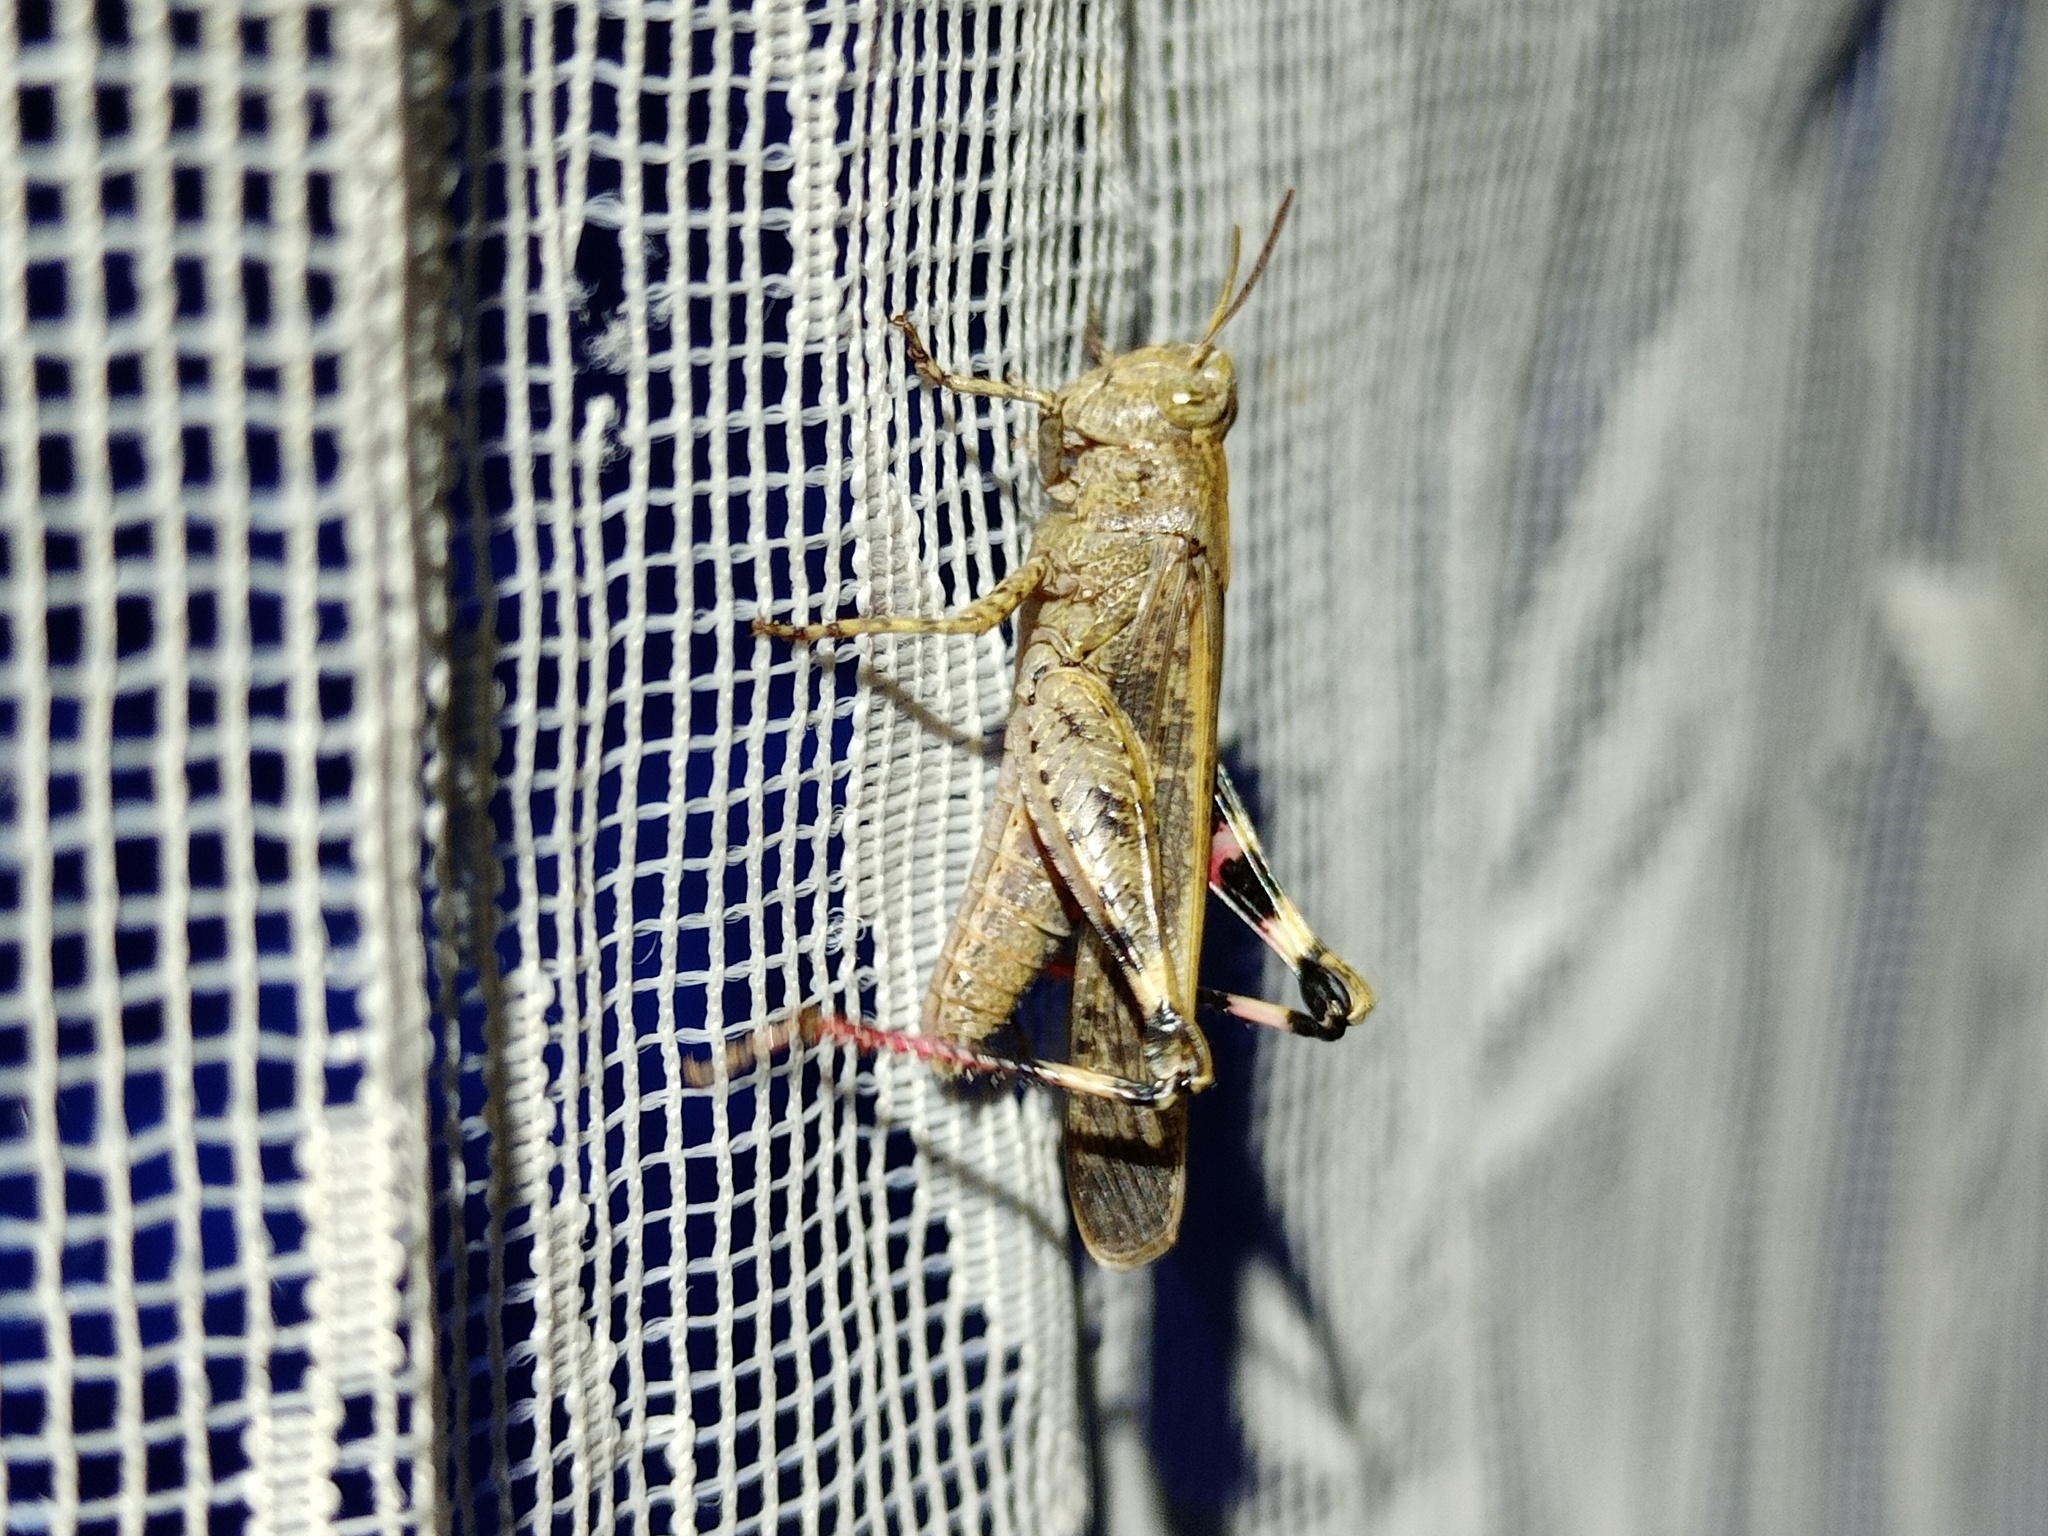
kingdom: Animalia
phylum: Arthropoda
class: Insecta
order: Orthoptera
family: Acrididae
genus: Aiolopus
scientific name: Aiolopus strepens
